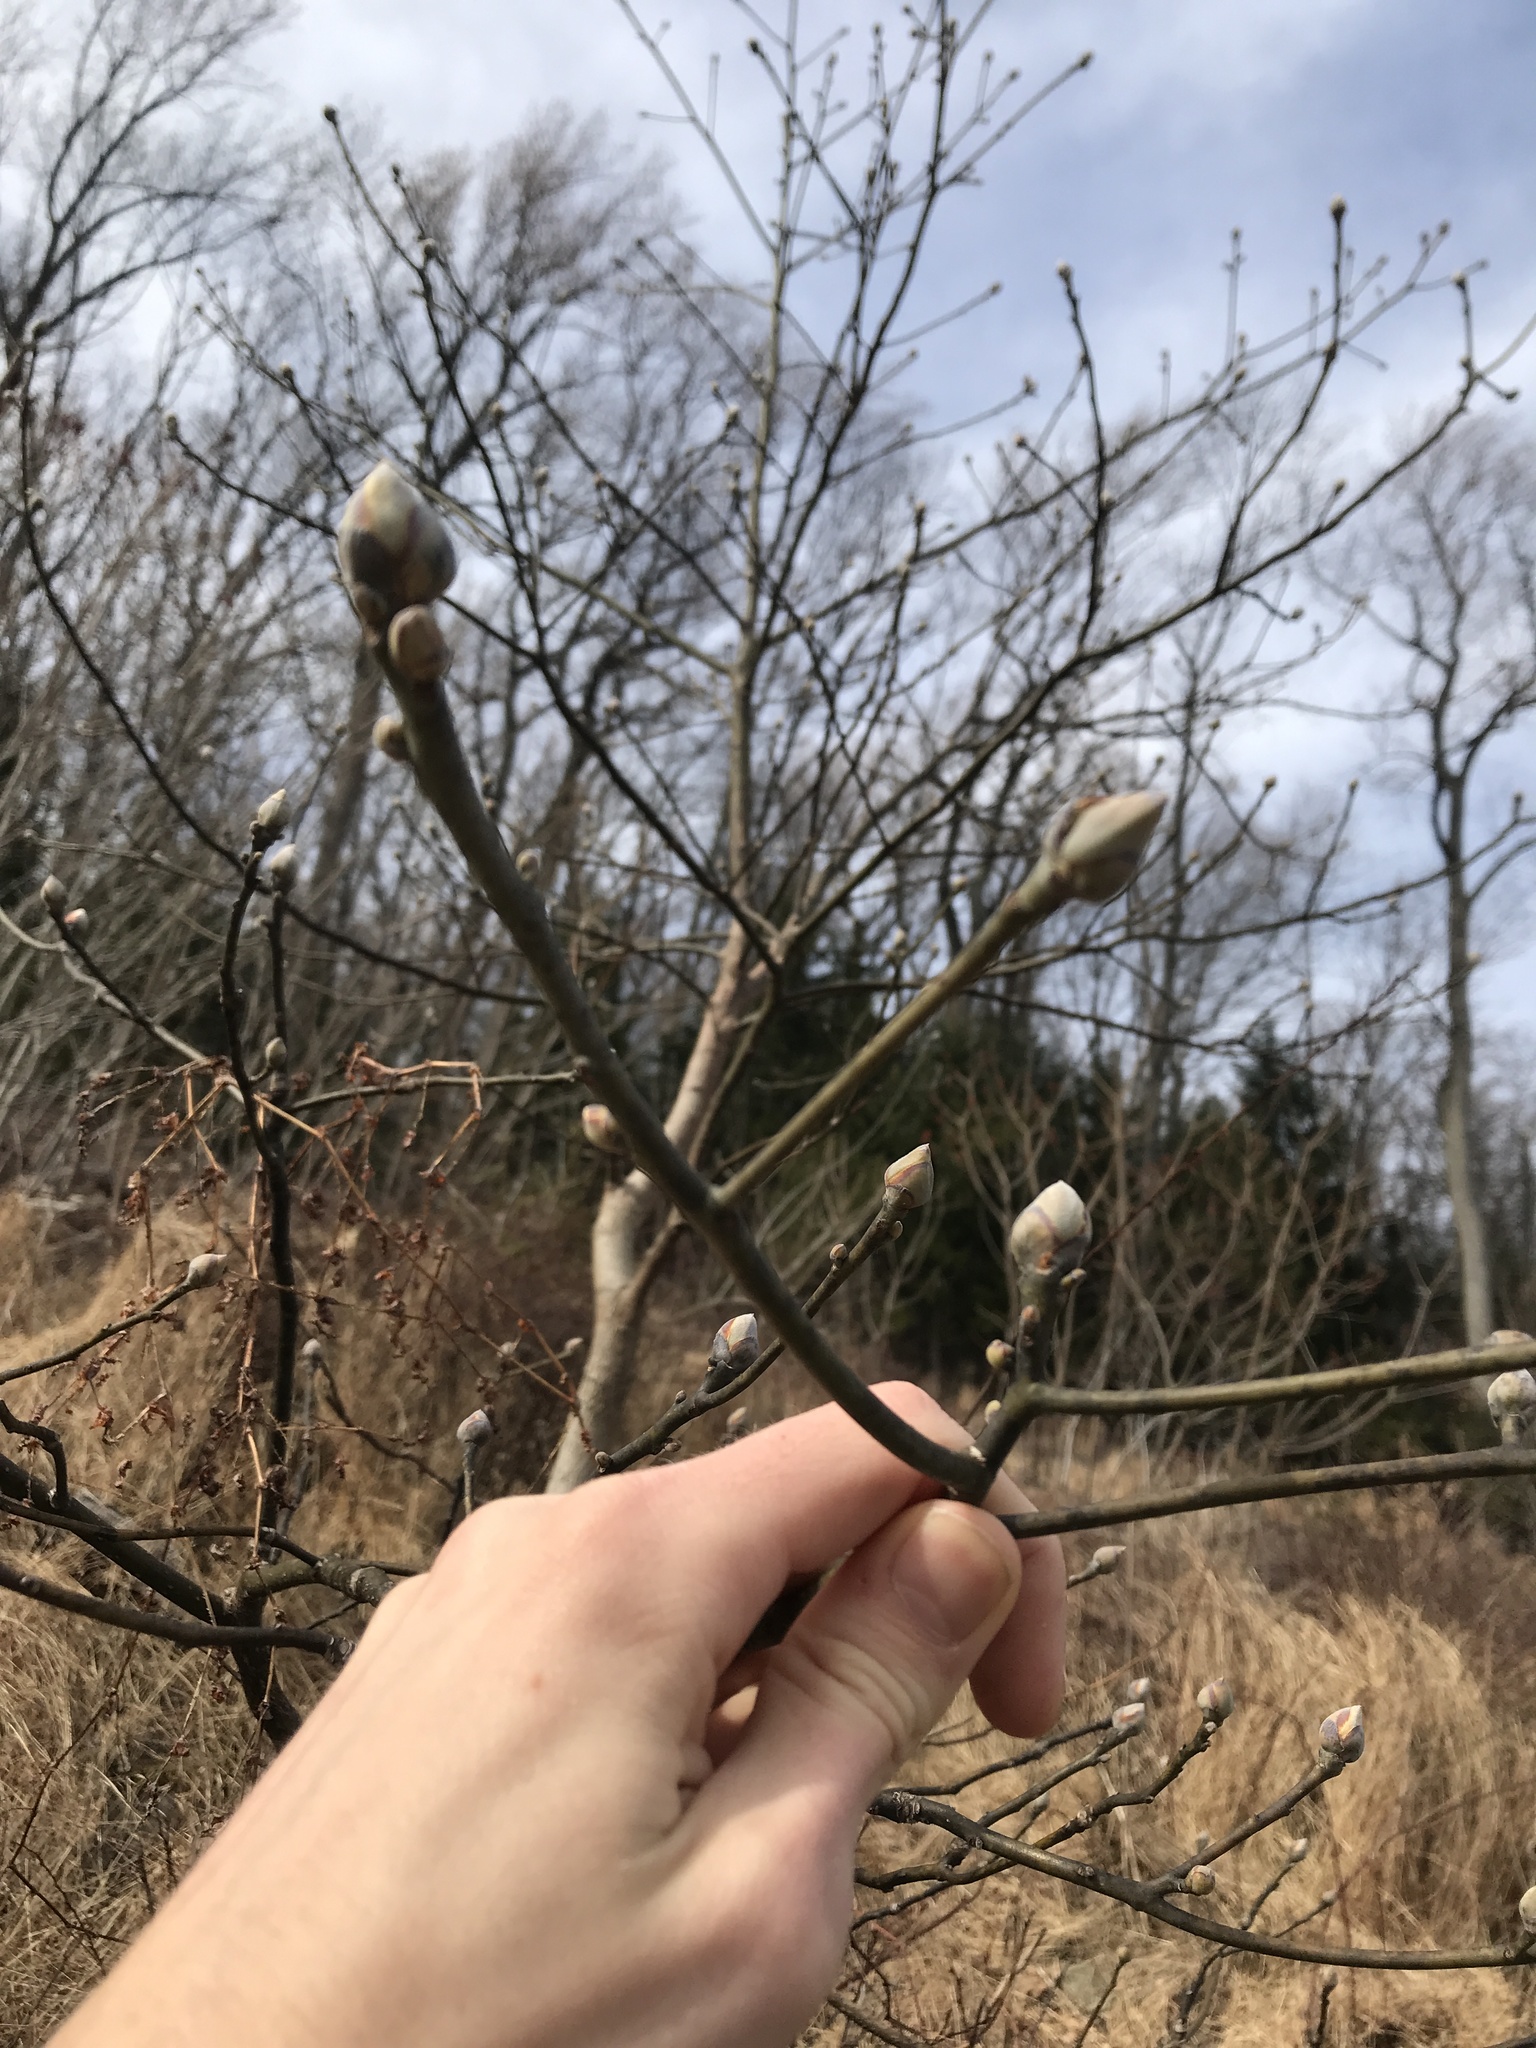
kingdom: Plantae
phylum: Tracheophyta
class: Magnoliopsida
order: Laurales
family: Lauraceae
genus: Sassafras
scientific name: Sassafras albidum
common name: Sassafras
